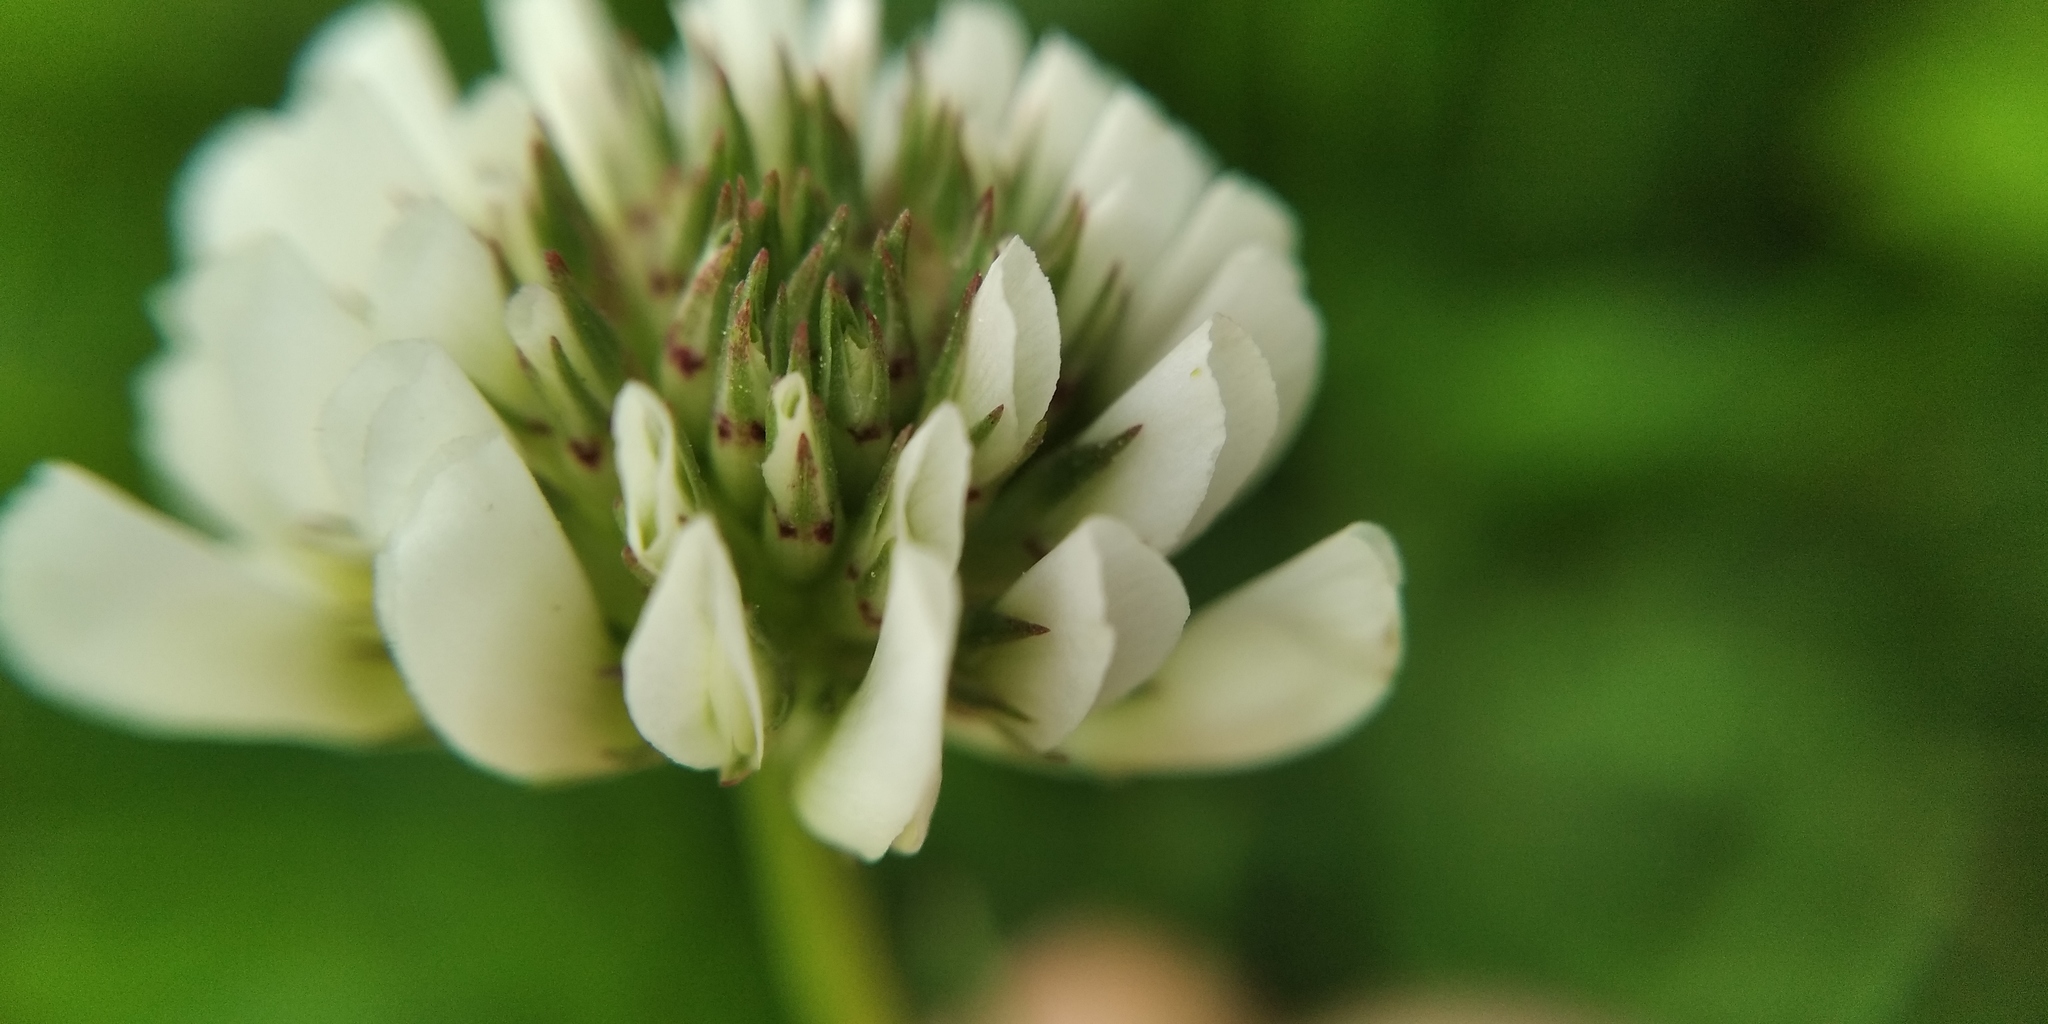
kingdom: Plantae
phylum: Tracheophyta
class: Magnoliopsida
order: Fabales
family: Fabaceae
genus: Trifolium
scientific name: Trifolium repens
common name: White clover
